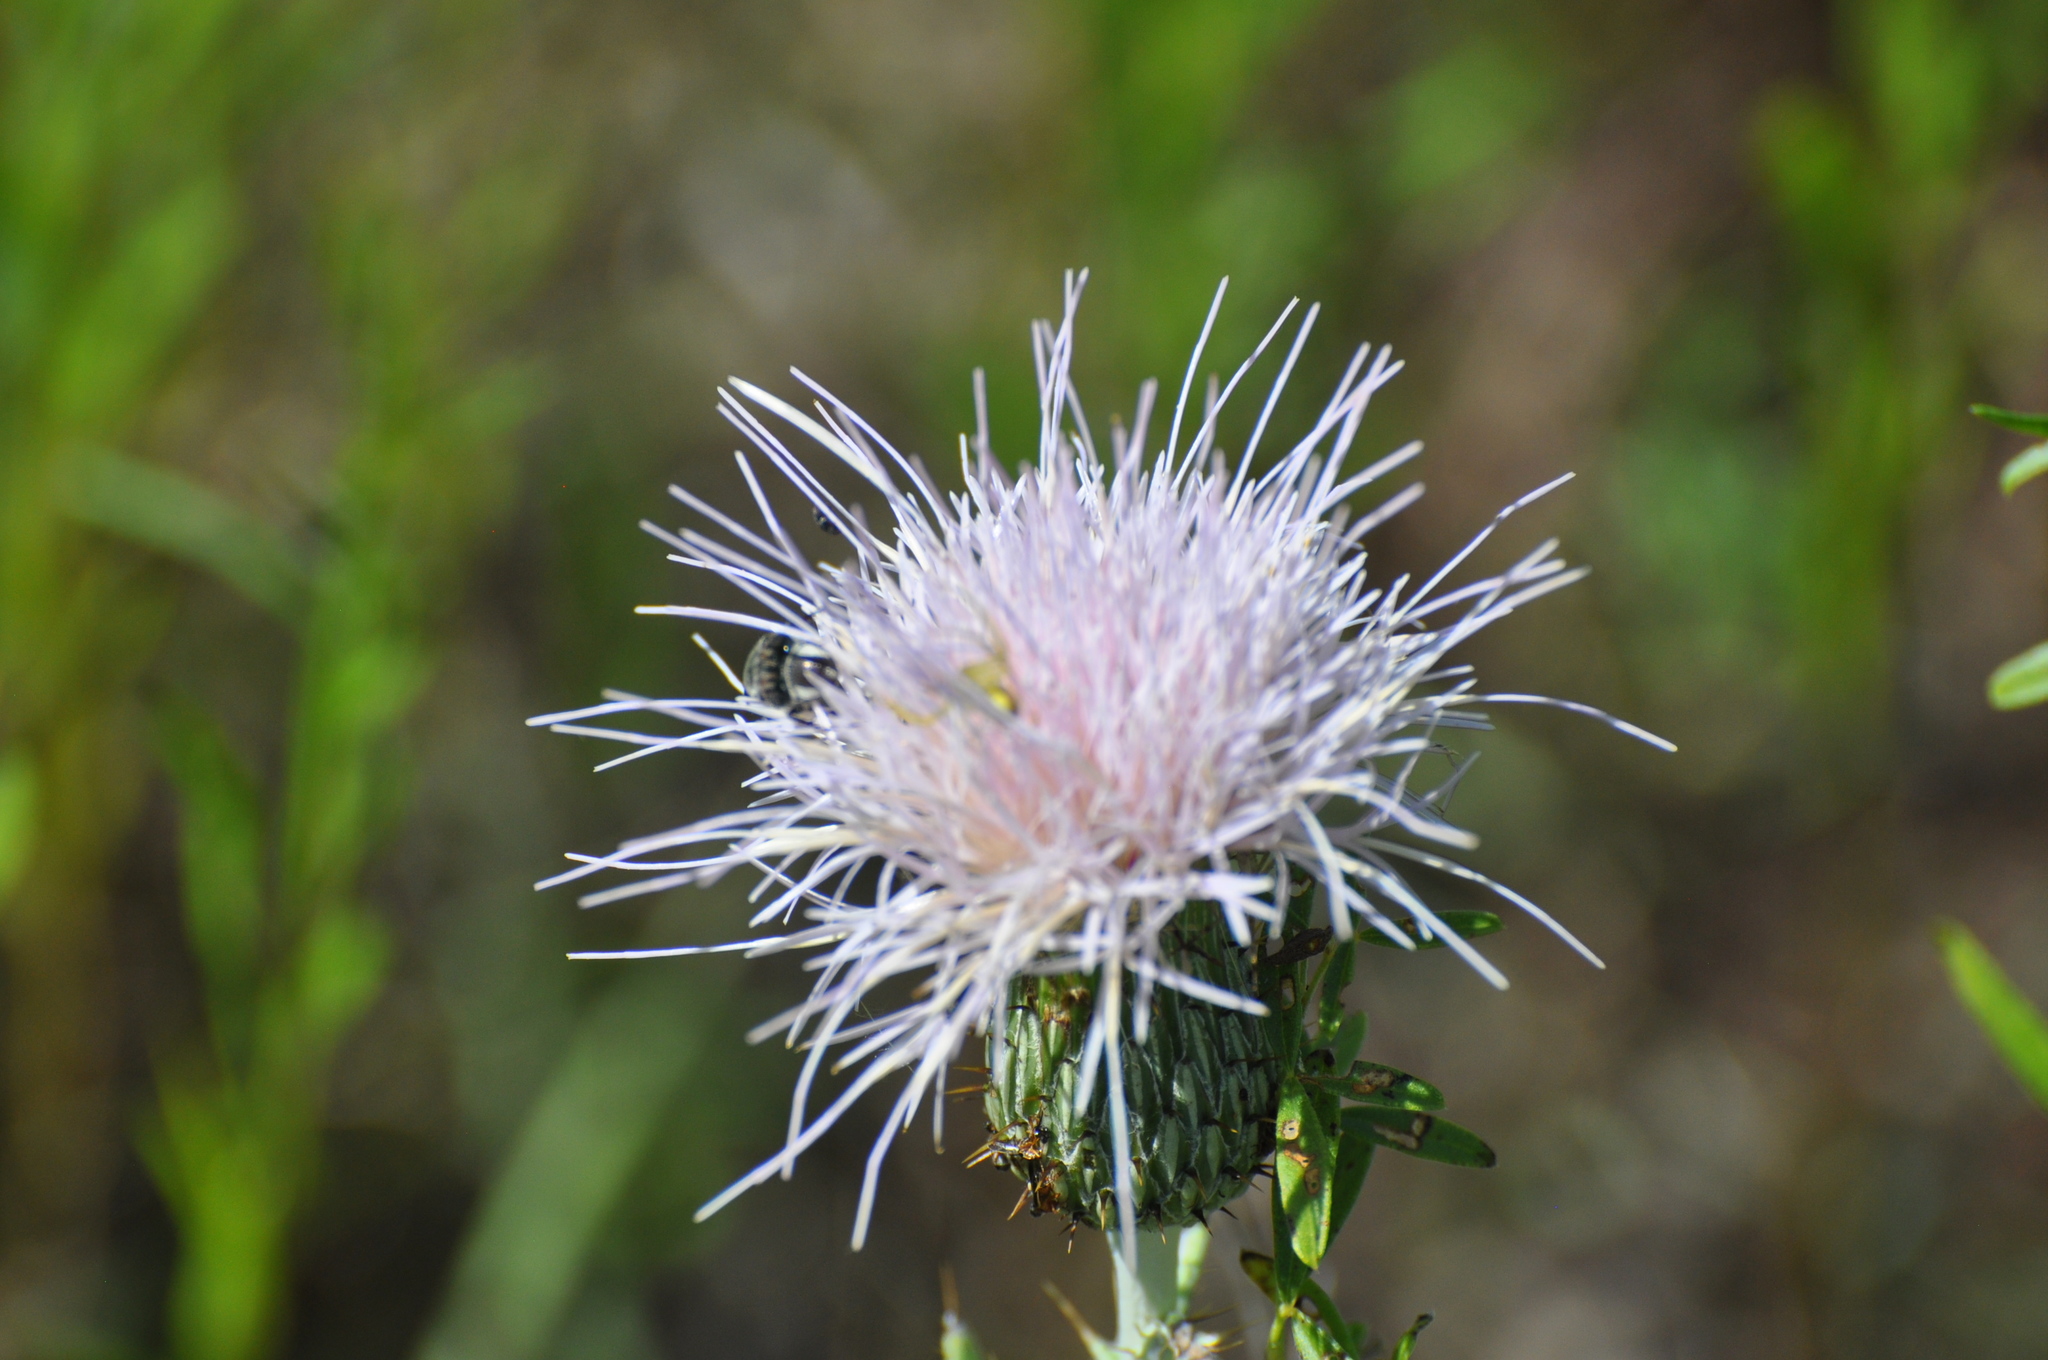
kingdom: Plantae
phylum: Tracheophyta
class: Magnoliopsida
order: Asterales
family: Asteraceae
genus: Cirsium
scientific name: Cirsium undulatum
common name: Pasture thistle
